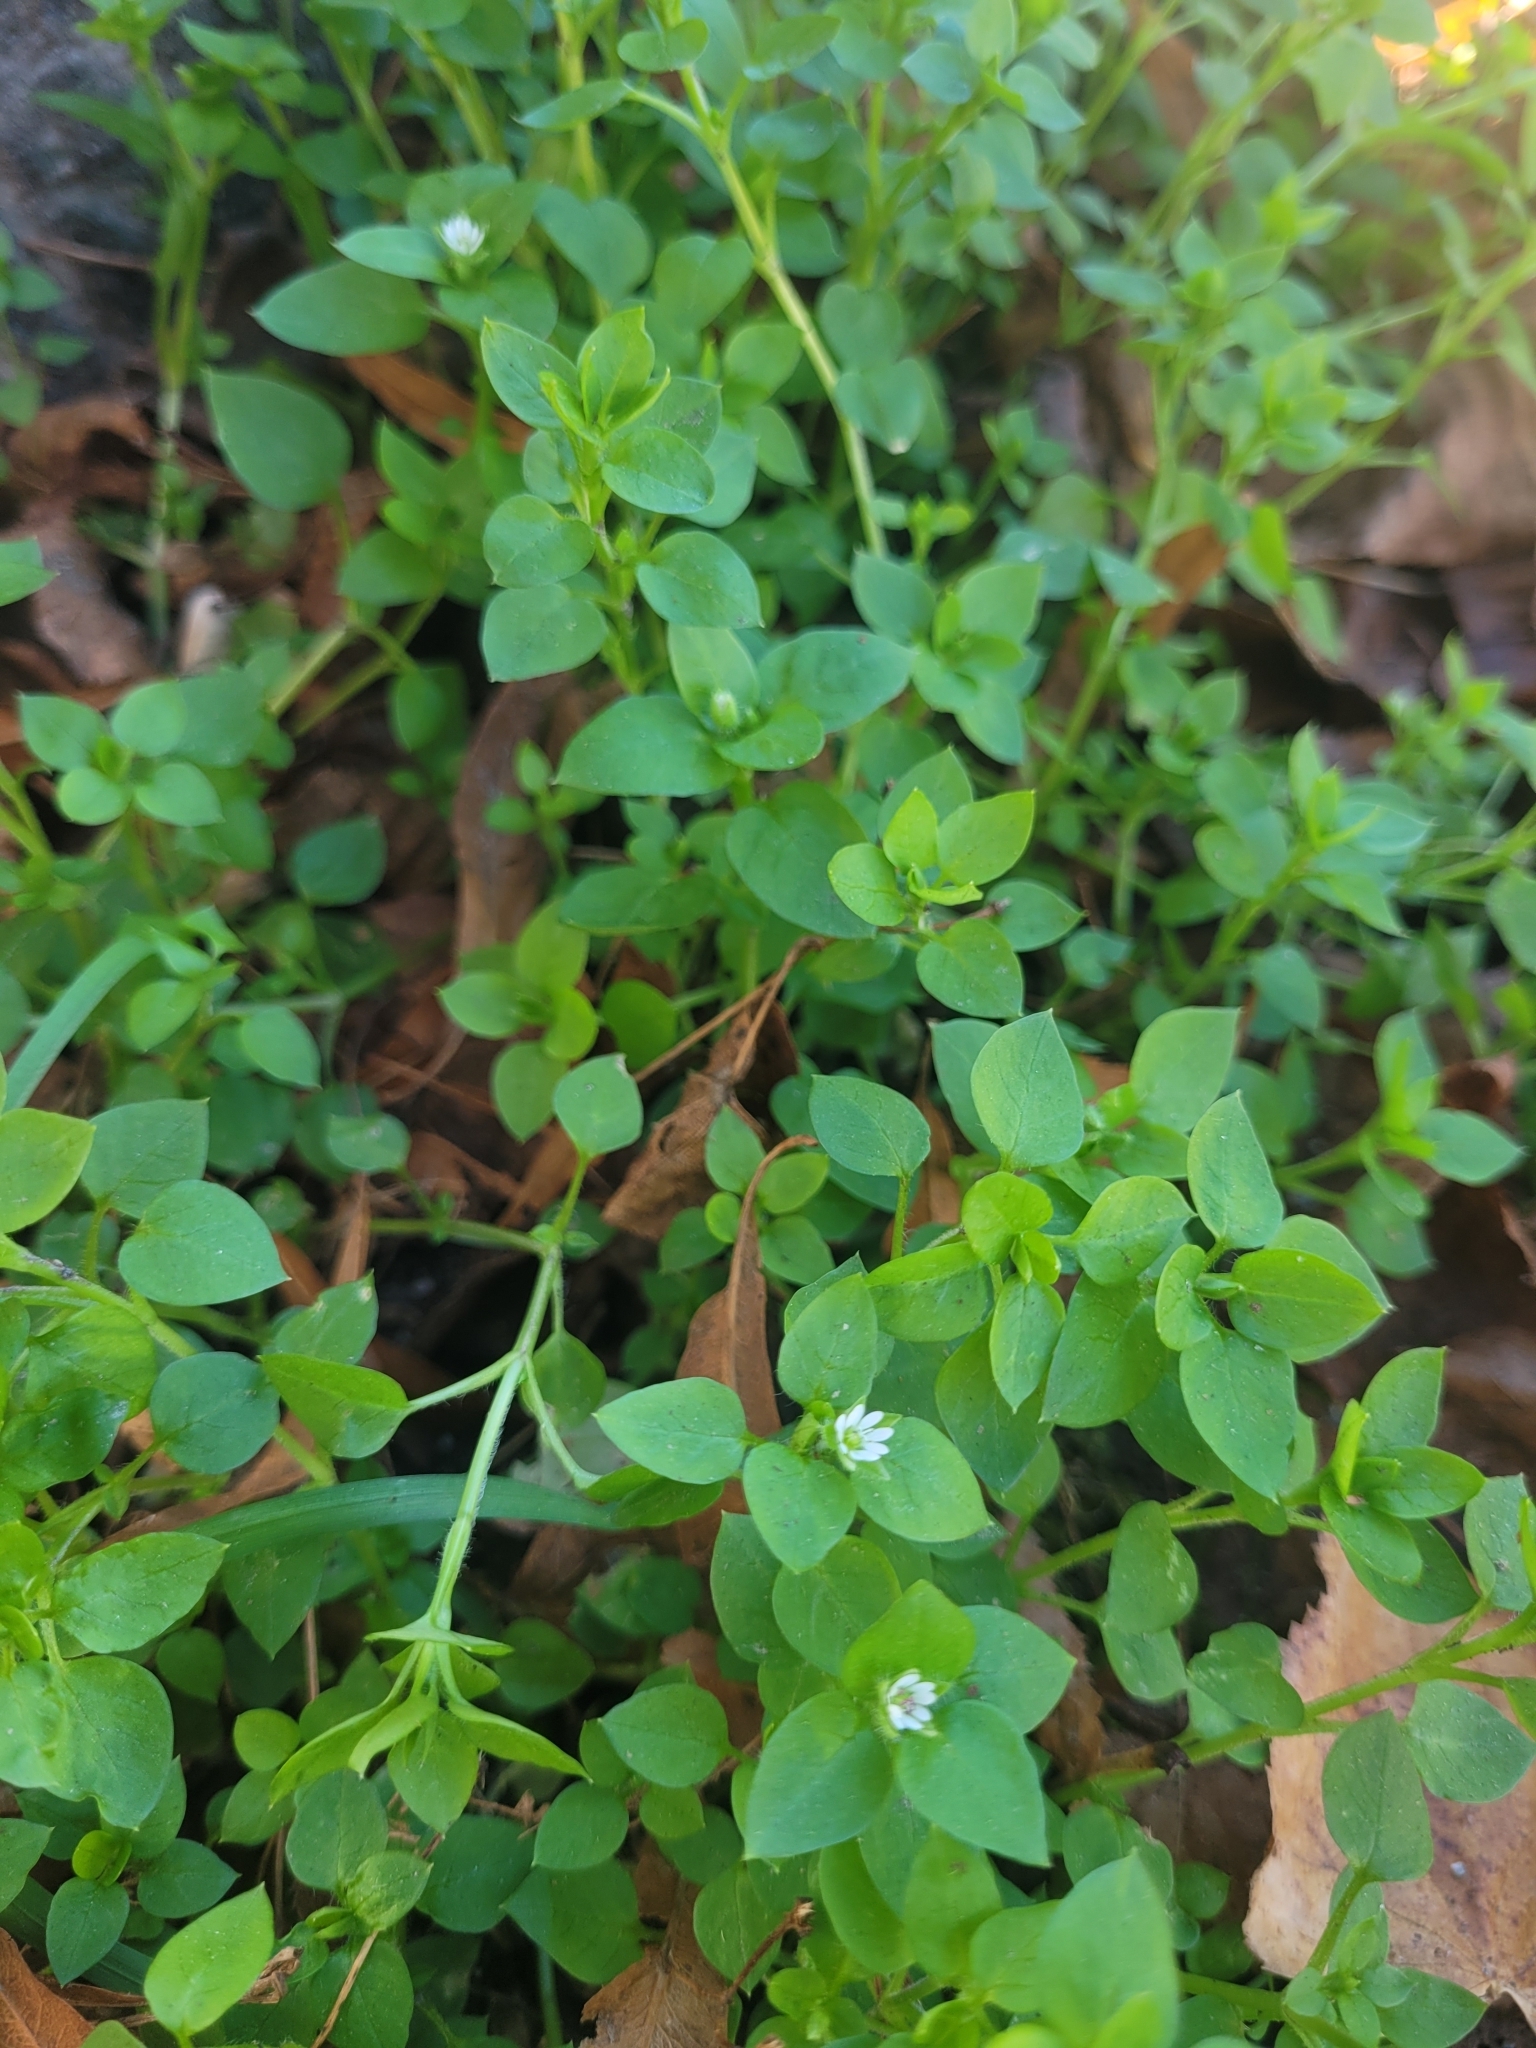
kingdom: Plantae
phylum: Tracheophyta
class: Magnoliopsida
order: Caryophyllales
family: Caryophyllaceae
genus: Stellaria
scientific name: Stellaria media
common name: Common chickweed
